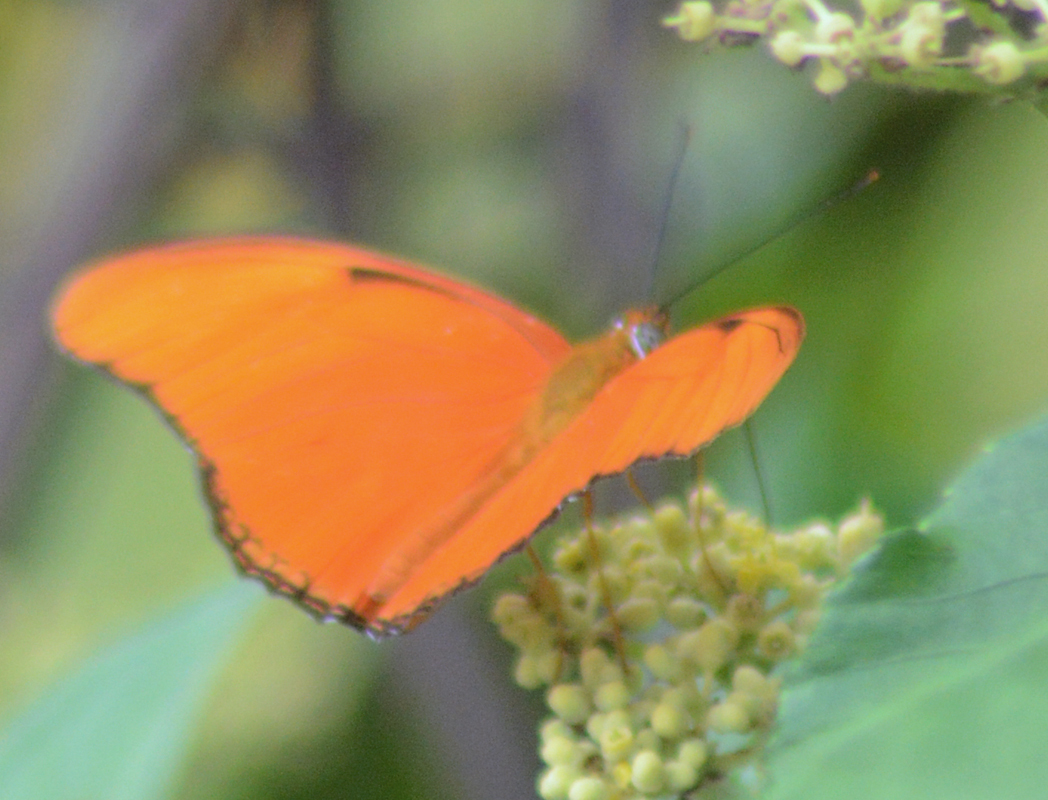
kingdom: Animalia
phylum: Arthropoda
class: Insecta
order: Lepidoptera
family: Nymphalidae
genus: Dryas
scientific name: Dryas iulia
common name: Flambeau
